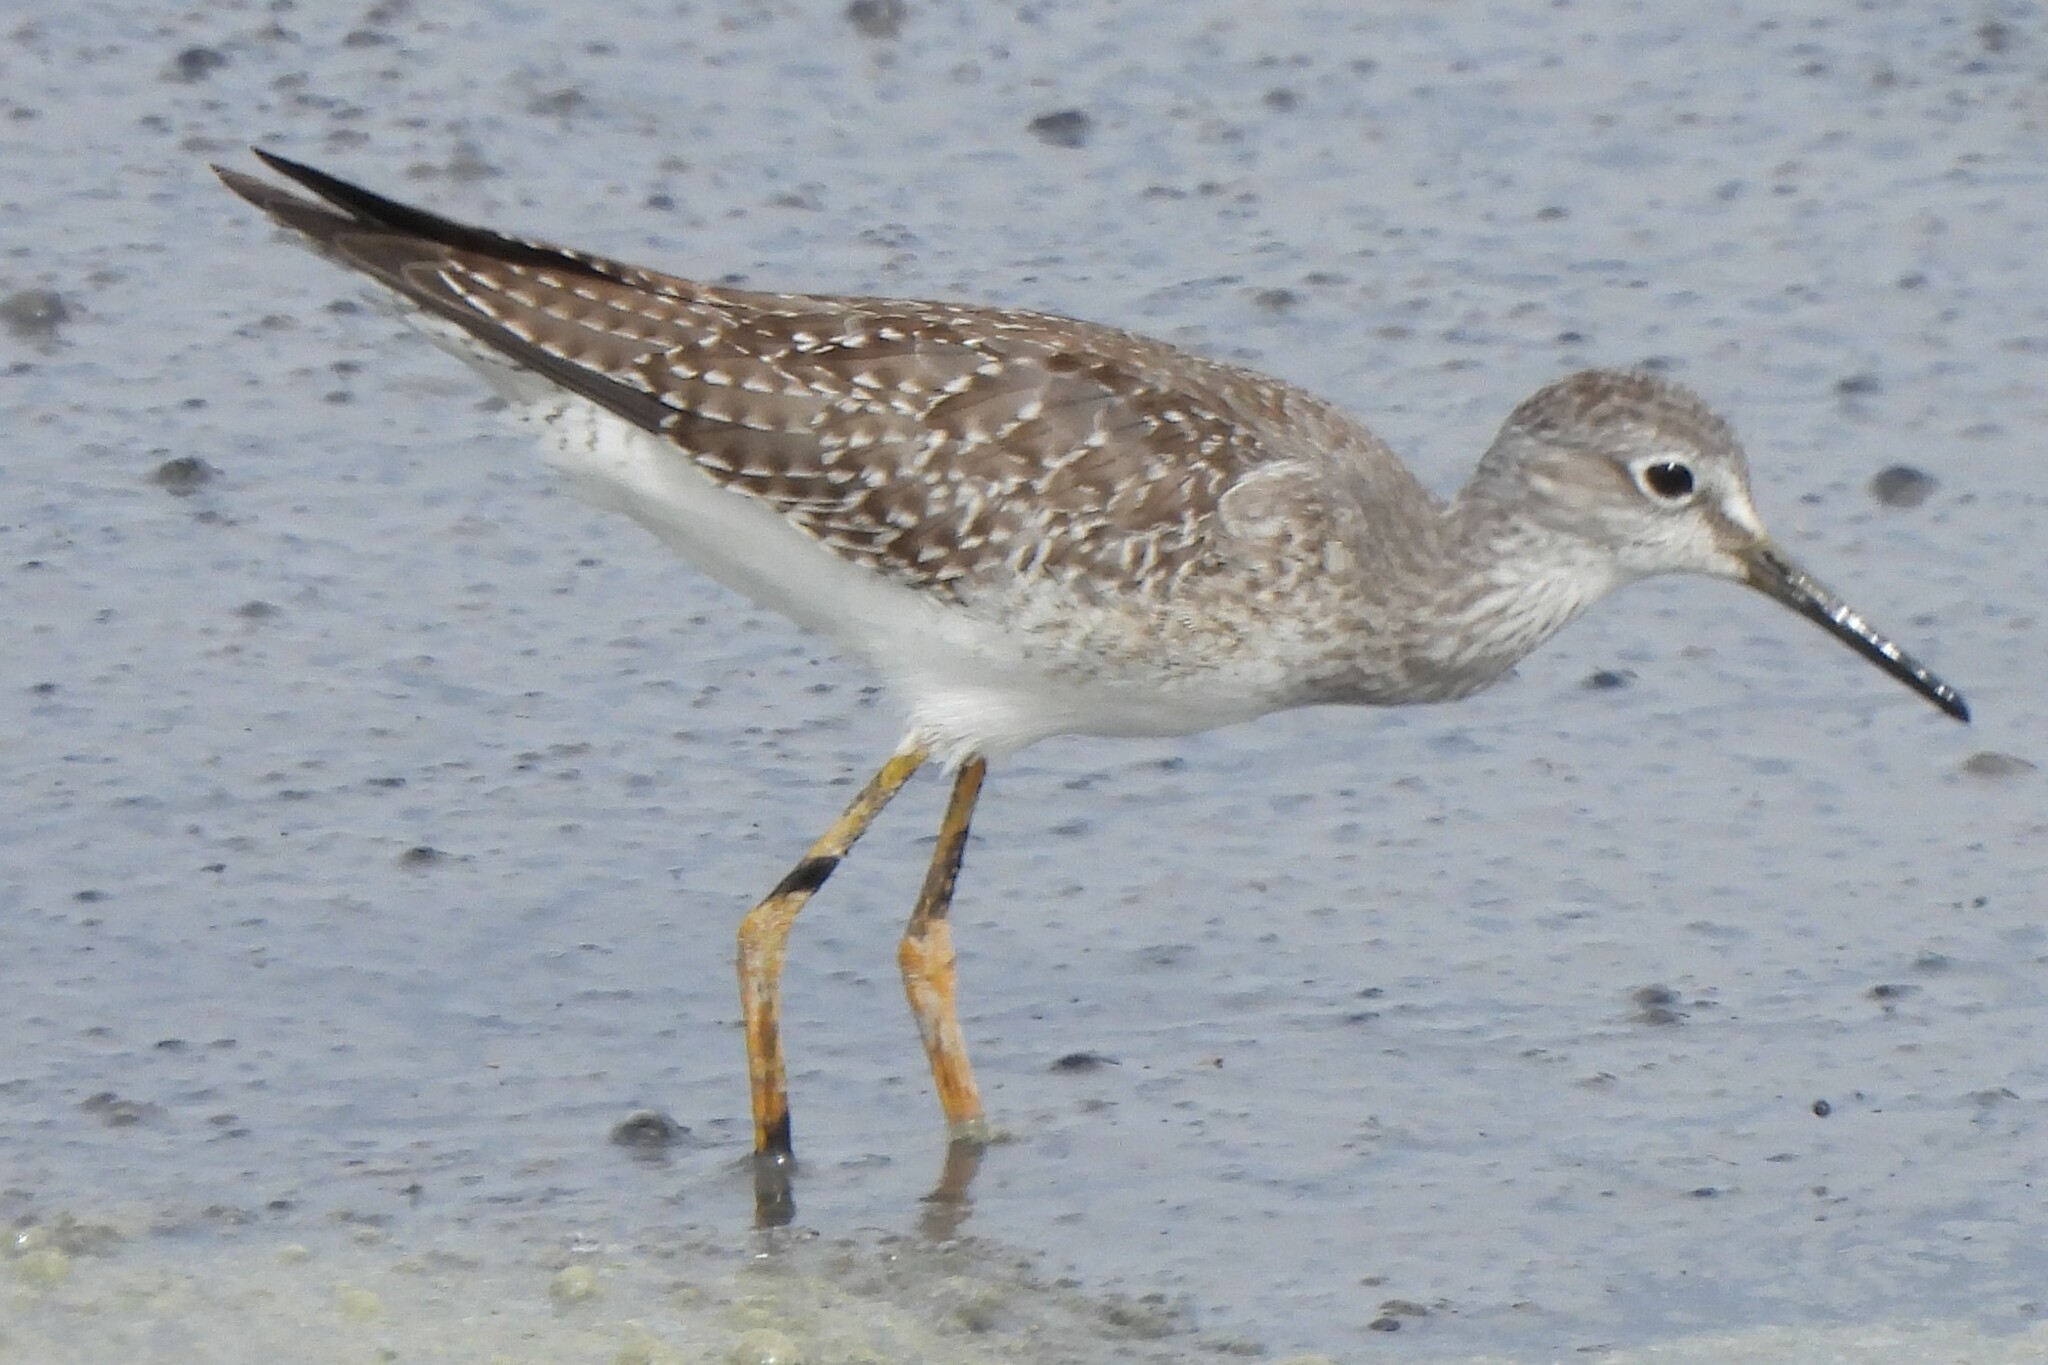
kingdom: Animalia
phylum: Chordata
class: Aves
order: Charadriiformes
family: Scolopacidae
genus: Tringa
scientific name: Tringa flavipes
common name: Lesser yellowlegs
